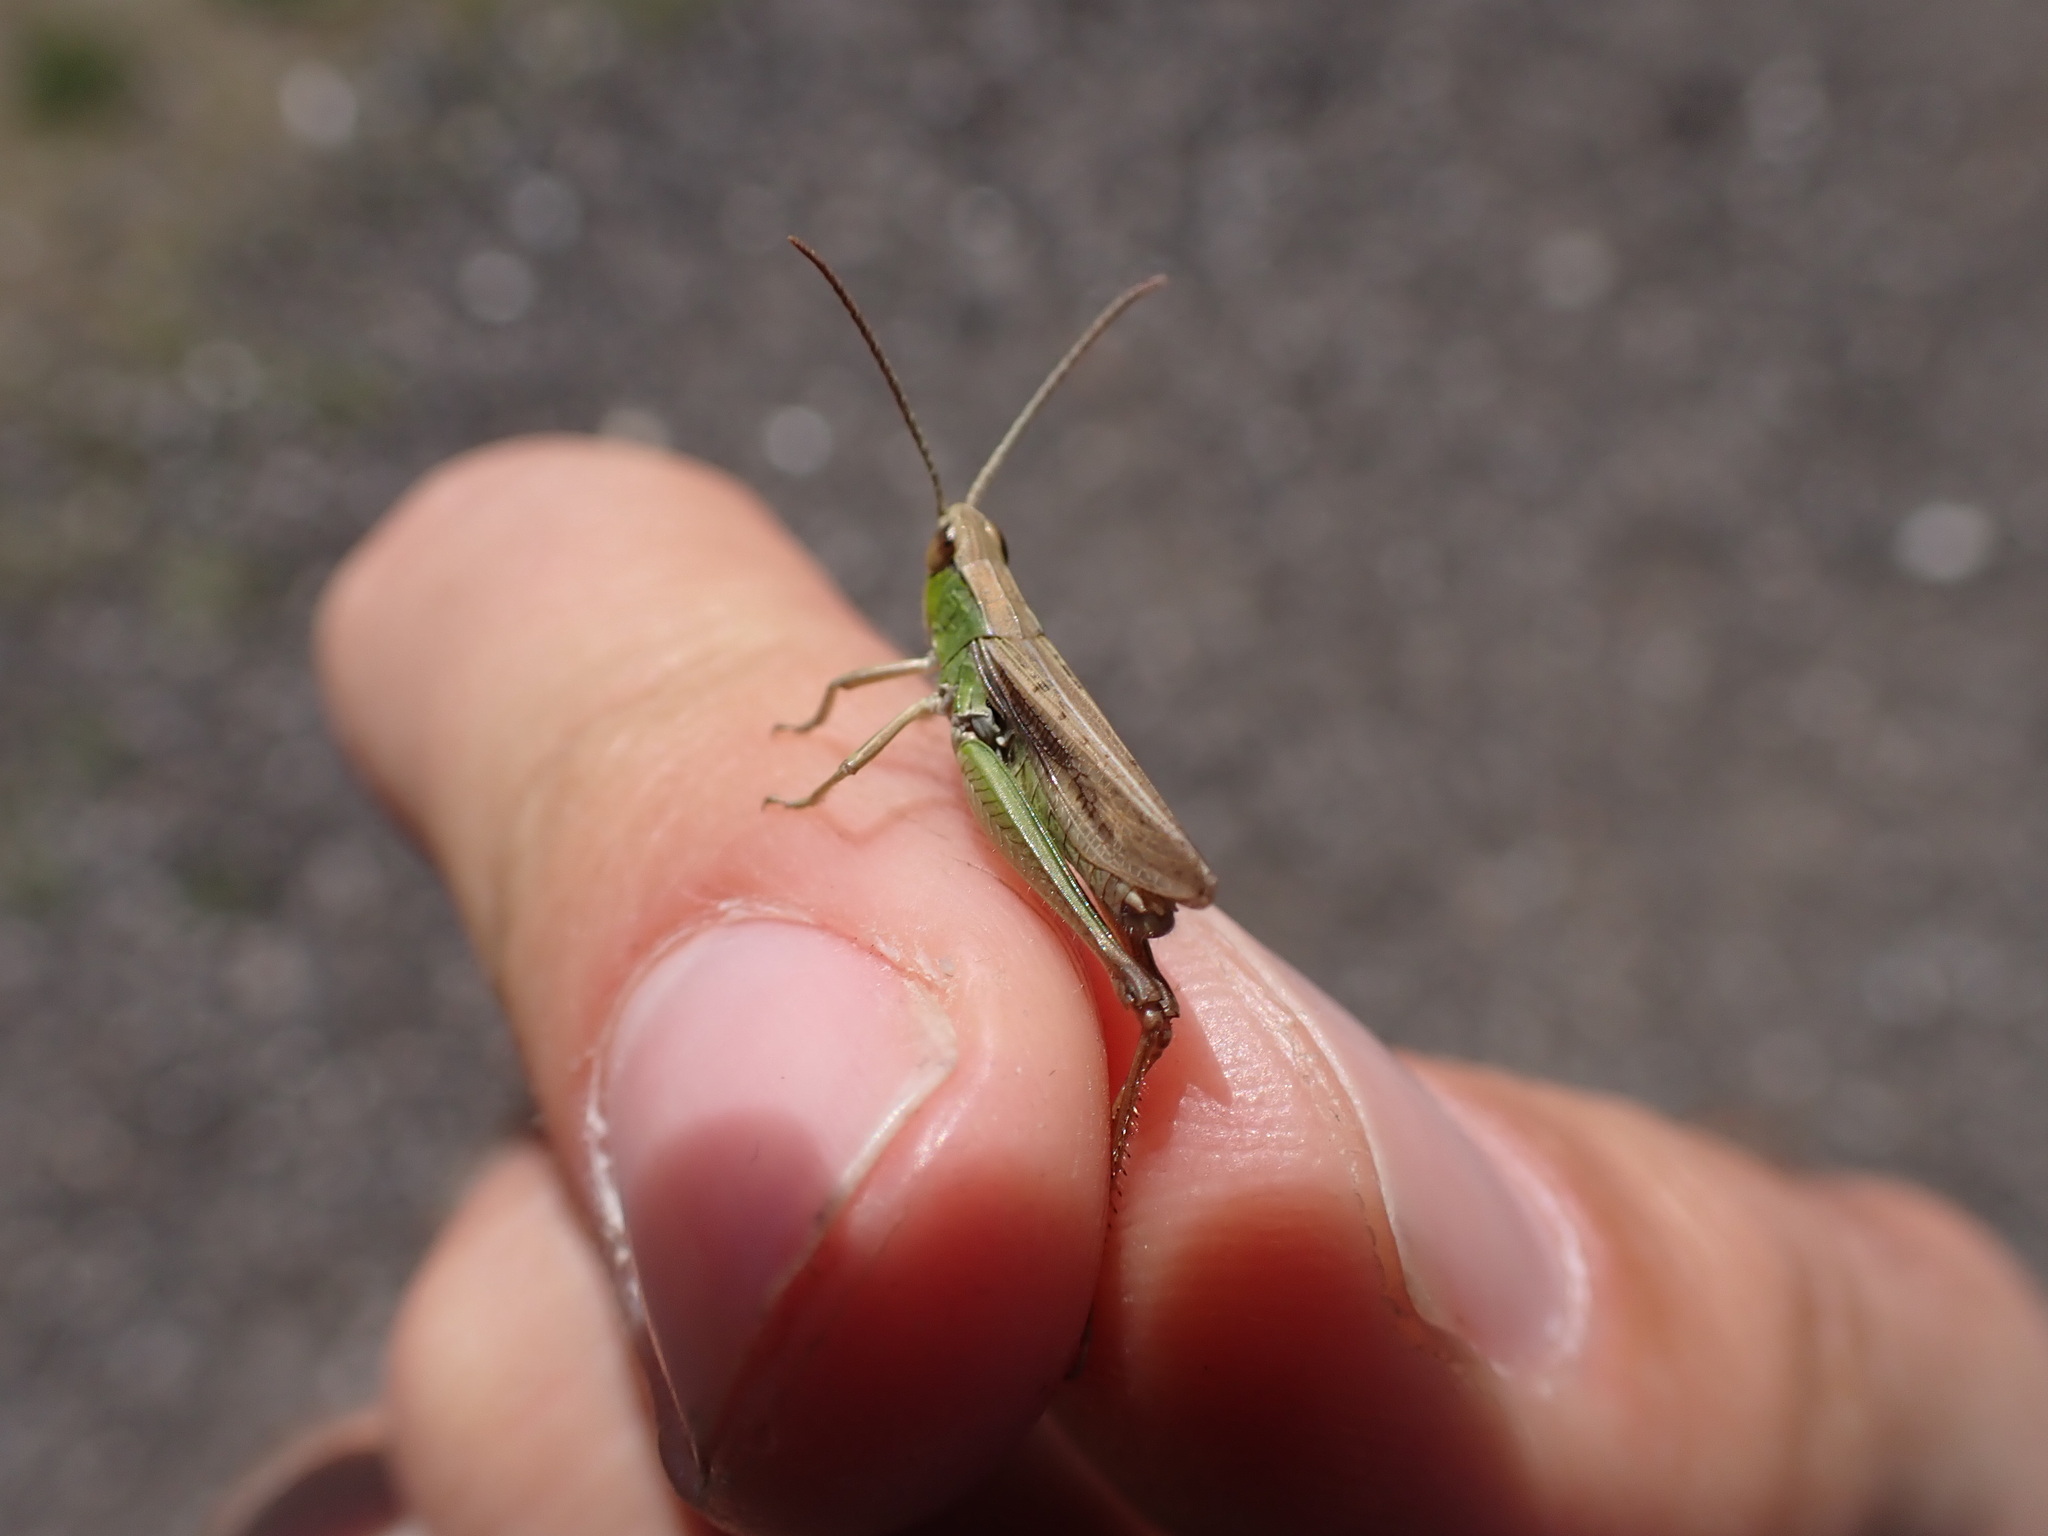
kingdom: Animalia
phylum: Arthropoda
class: Insecta
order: Orthoptera
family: Acrididae
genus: Chorthippus
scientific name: Chorthippus albomarginatus
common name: Lesser marsh grasshopper
